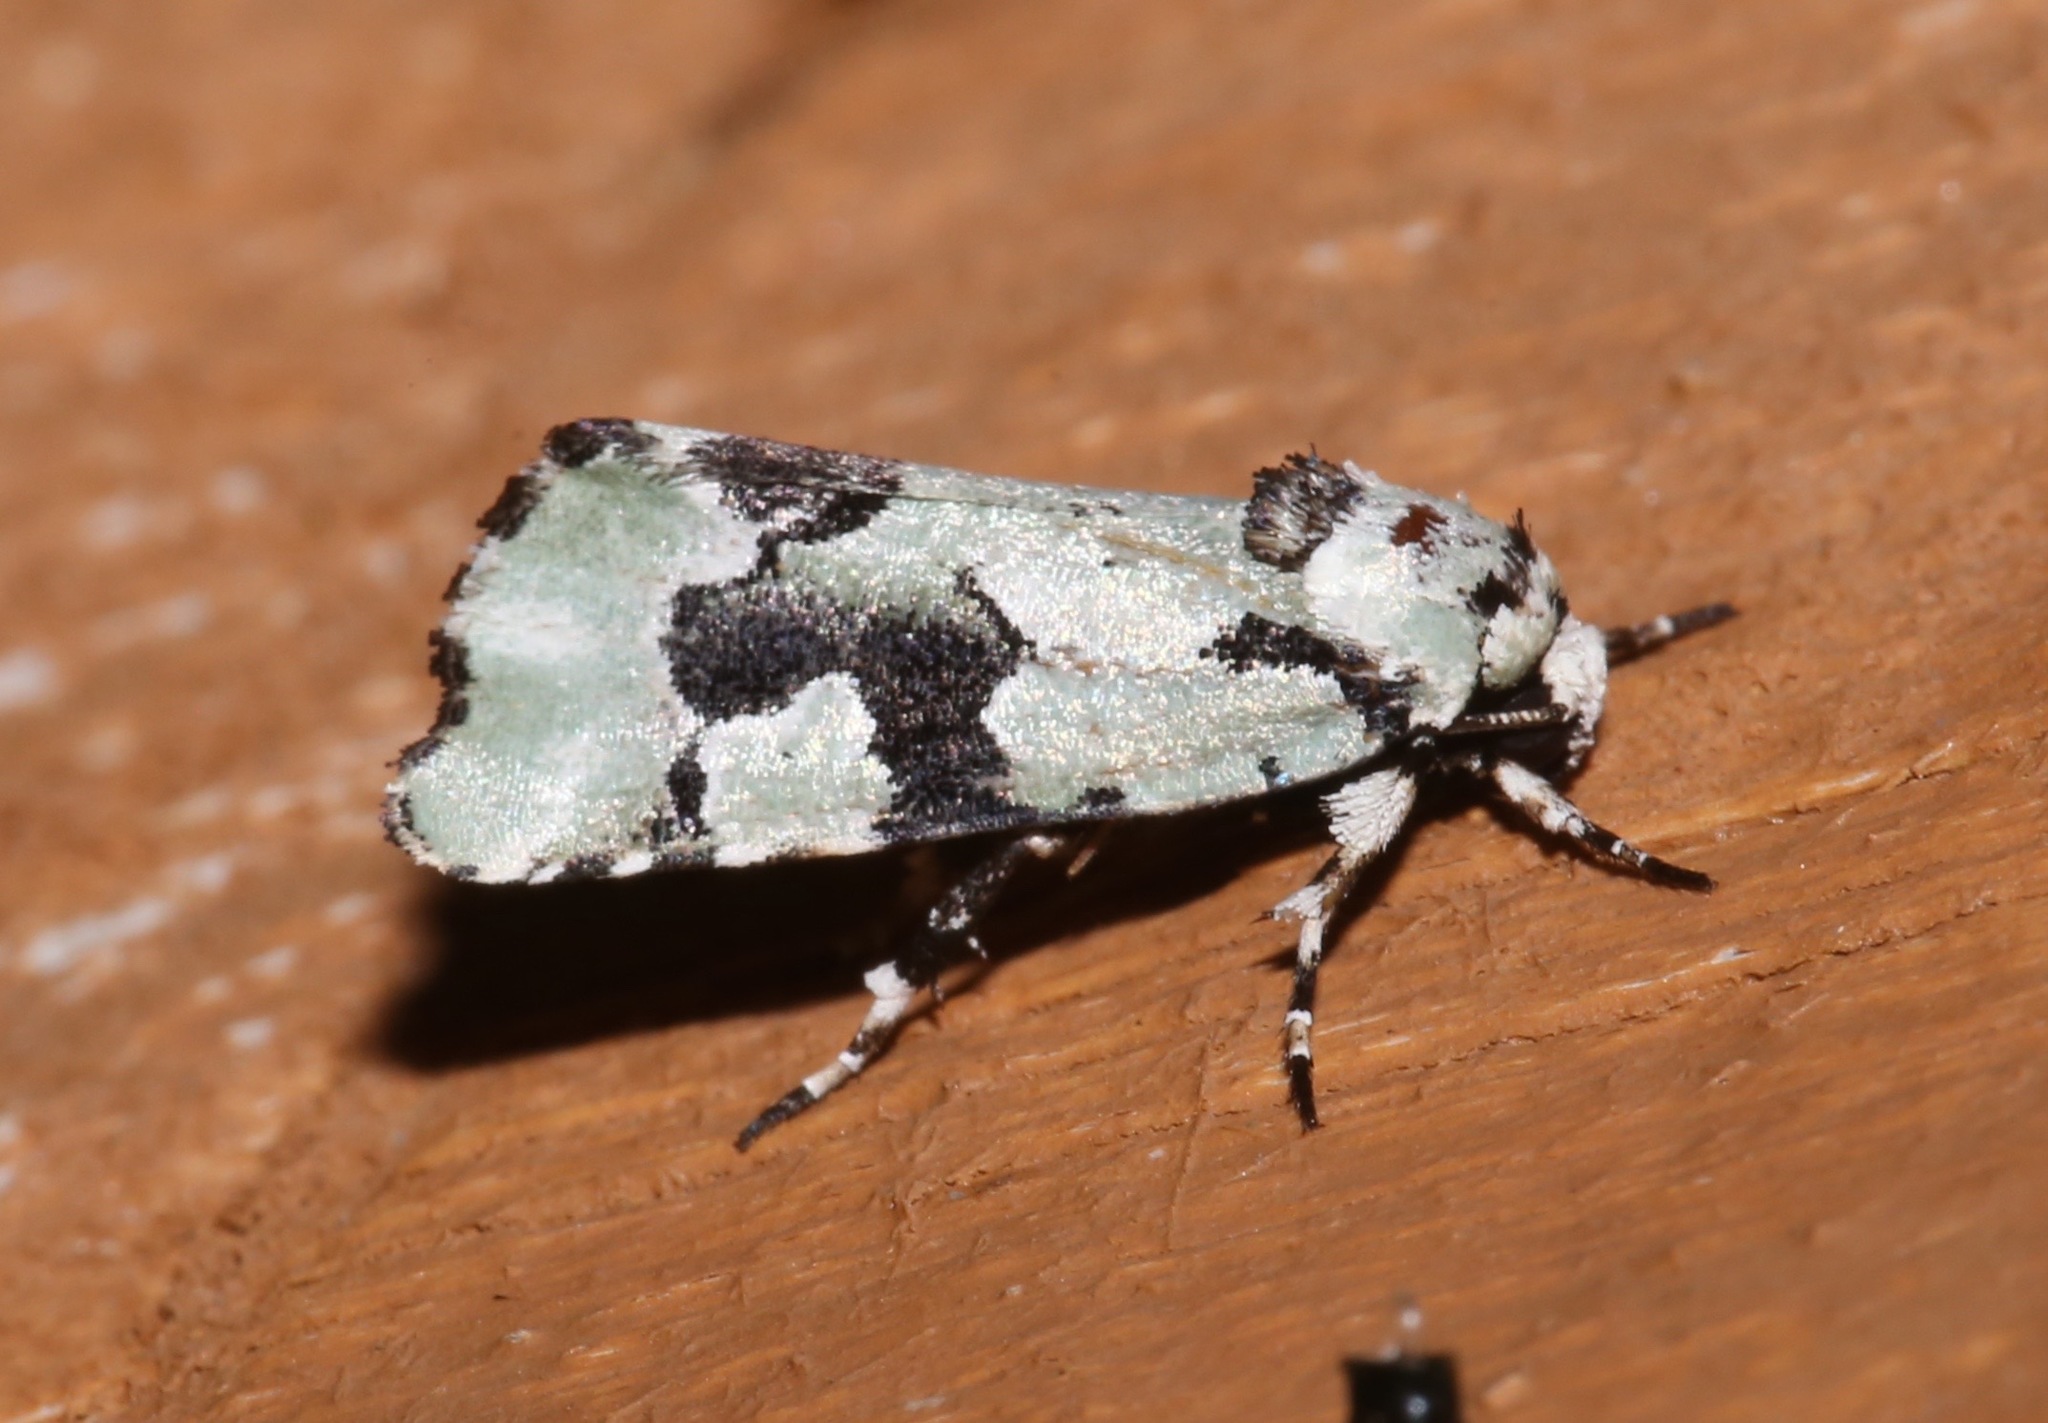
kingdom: Animalia
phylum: Arthropoda
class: Insecta
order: Lepidoptera
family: Noctuidae
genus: Emarginea
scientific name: Emarginea percara
